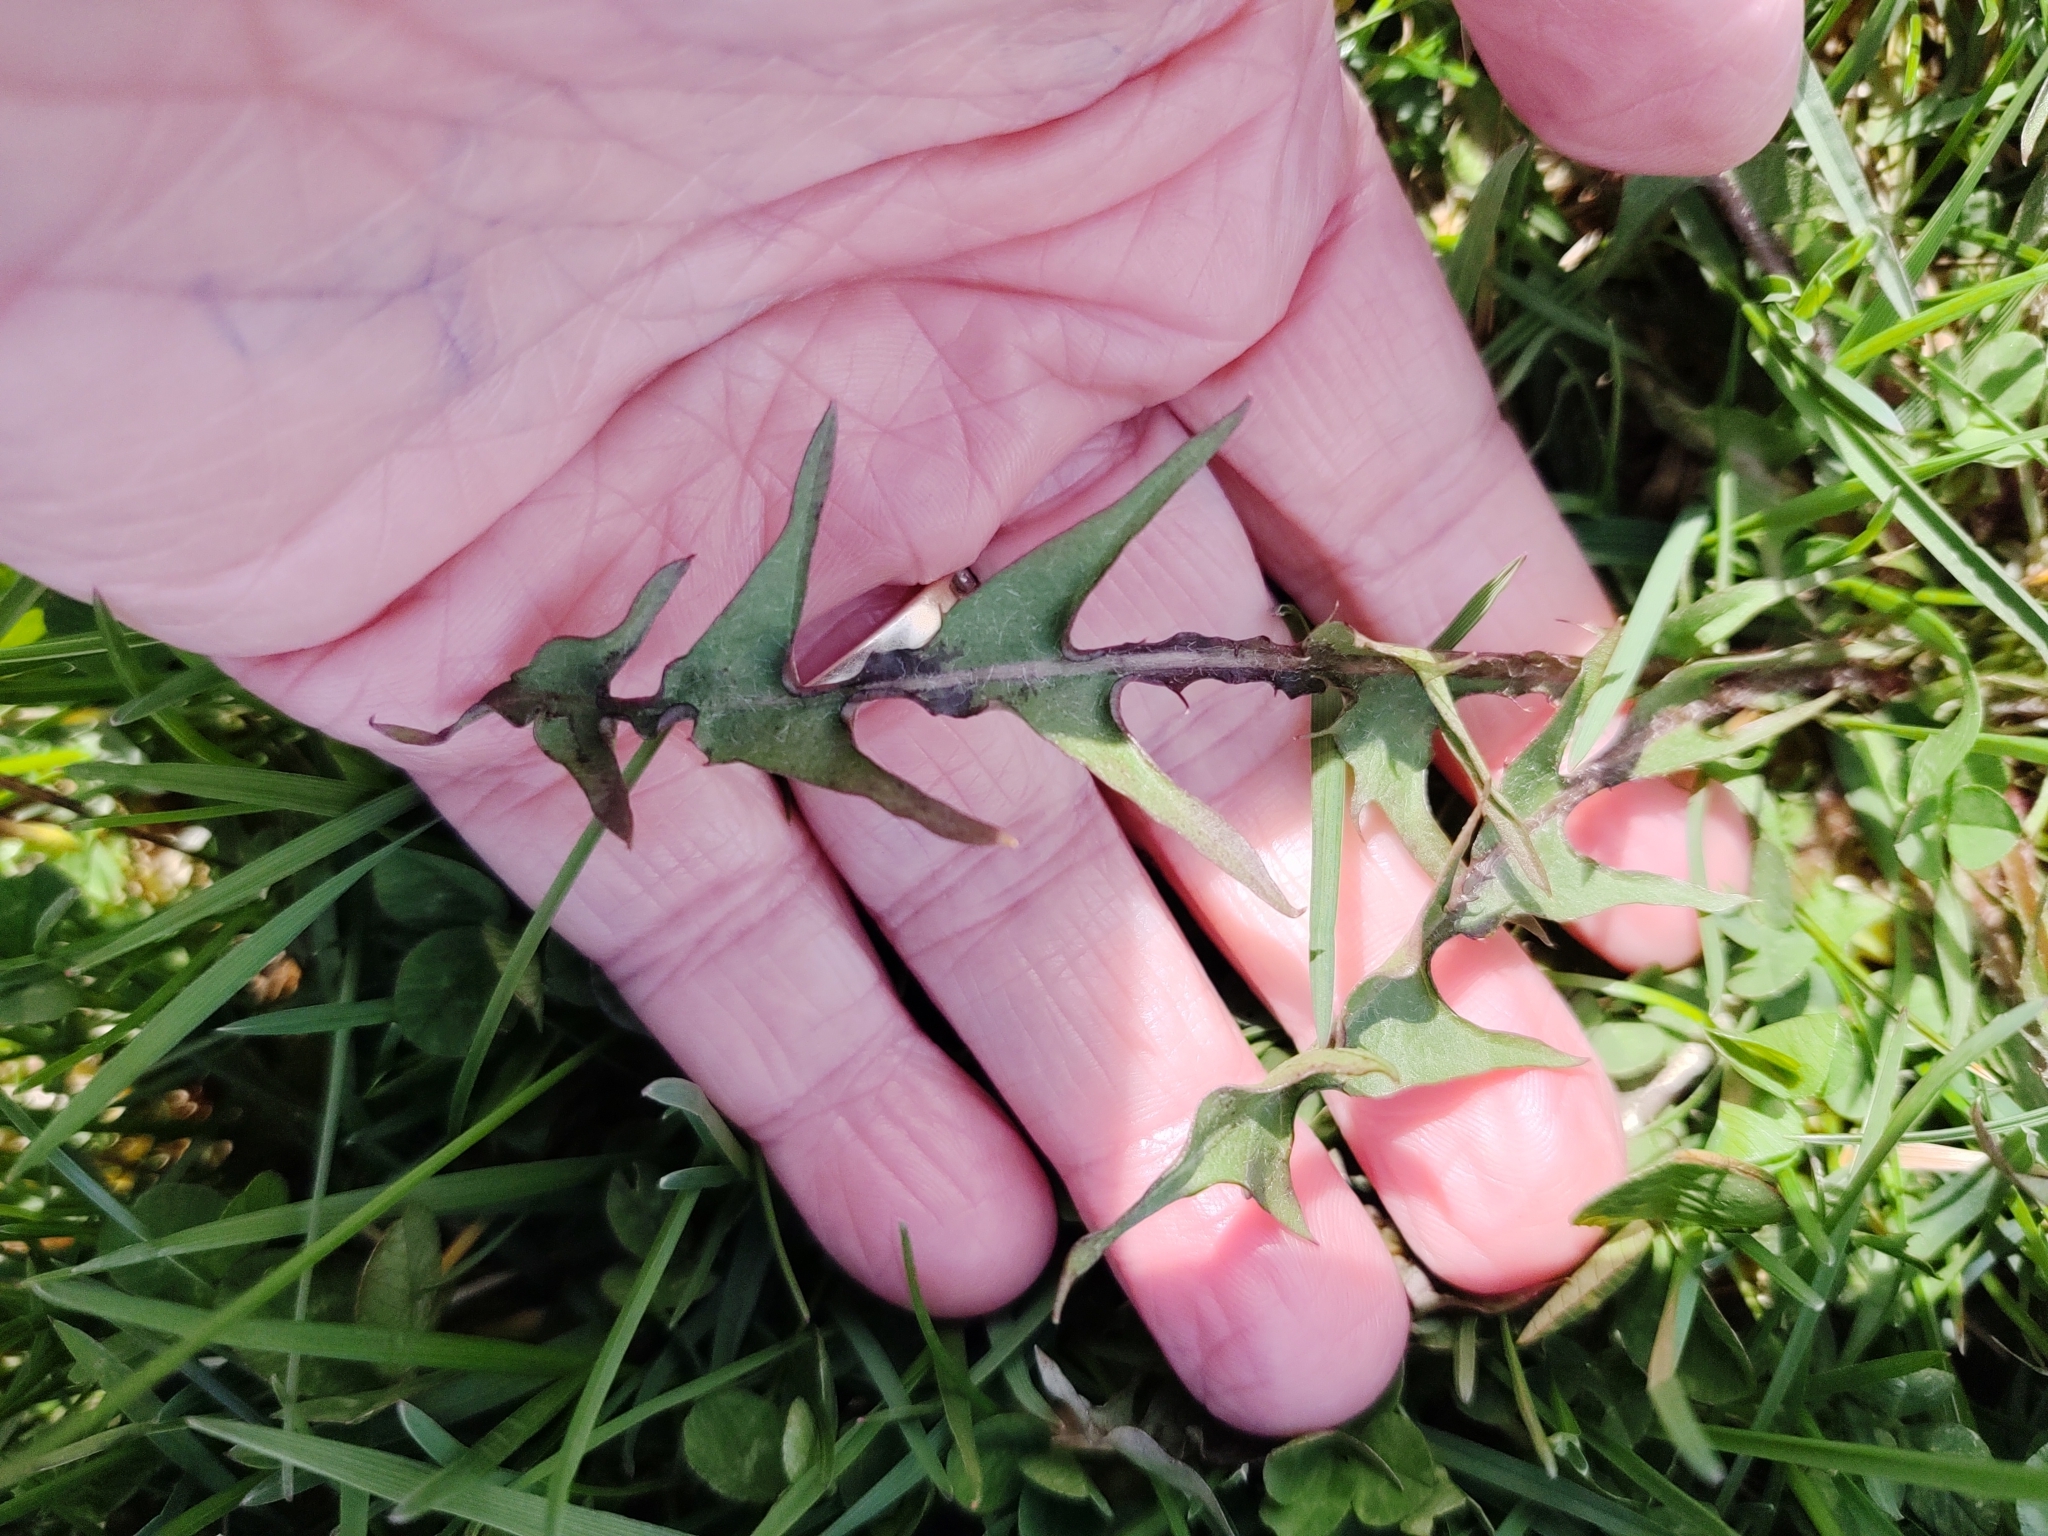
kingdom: Plantae
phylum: Tracheophyta
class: Magnoliopsida
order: Asterales
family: Asteraceae
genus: Taraxacum
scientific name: Taraxacum officinale
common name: Common dandelion
